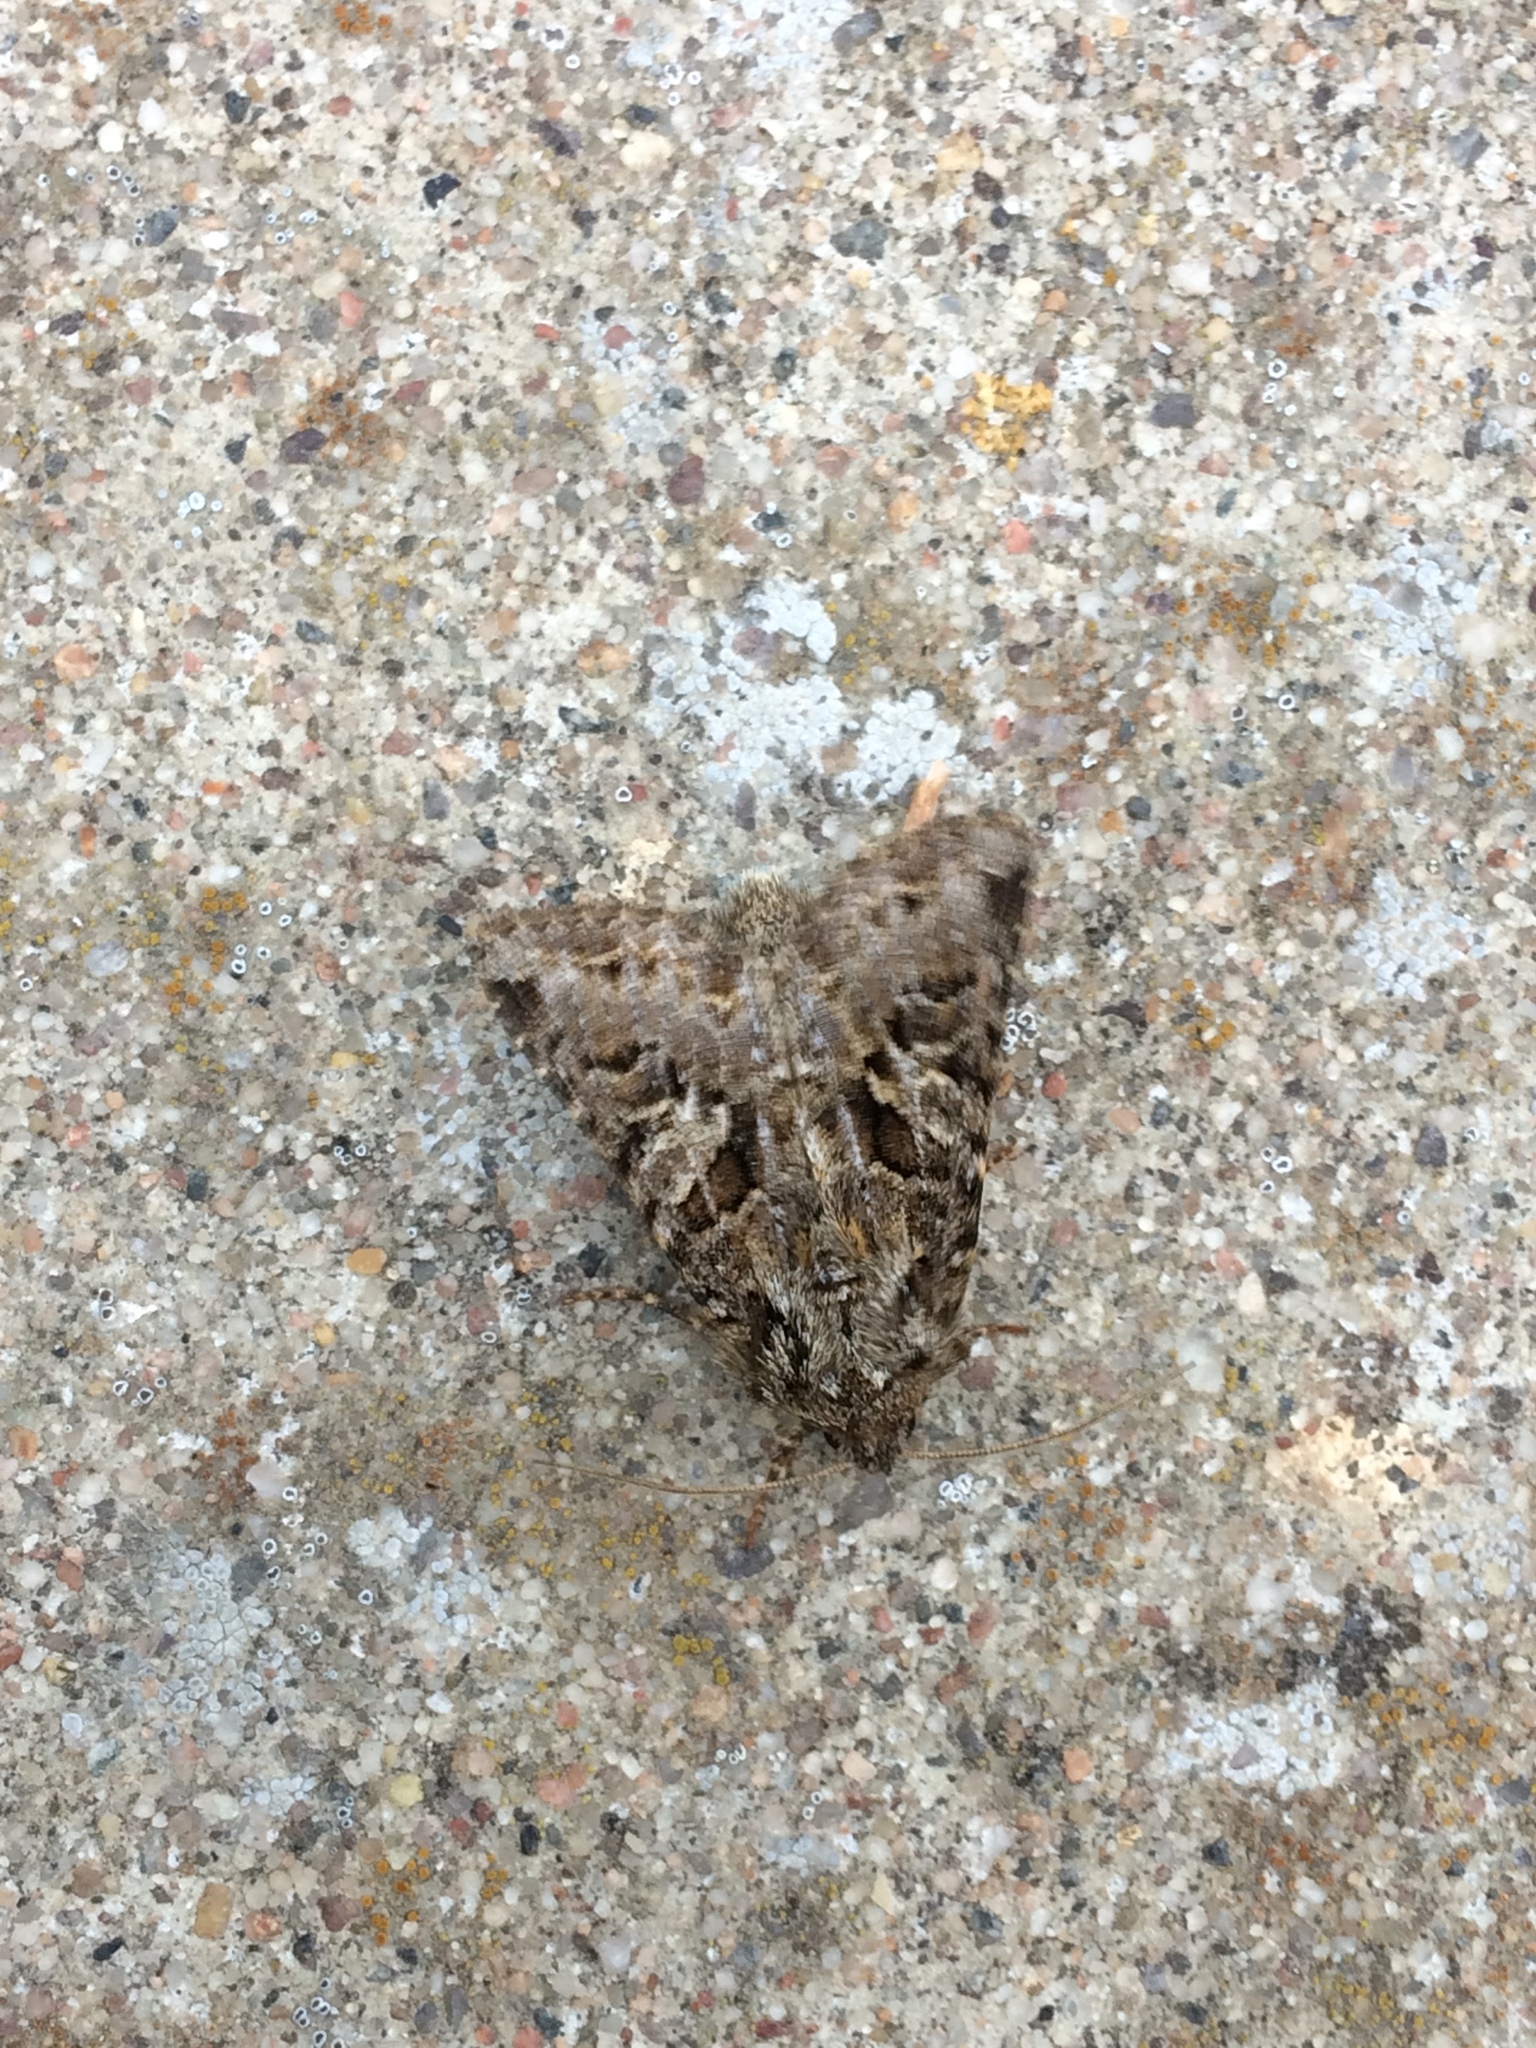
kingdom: Animalia
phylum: Arthropoda
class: Insecta
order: Lepidoptera
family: Noctuidae
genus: Hada
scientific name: Hada plebeja
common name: Shears
